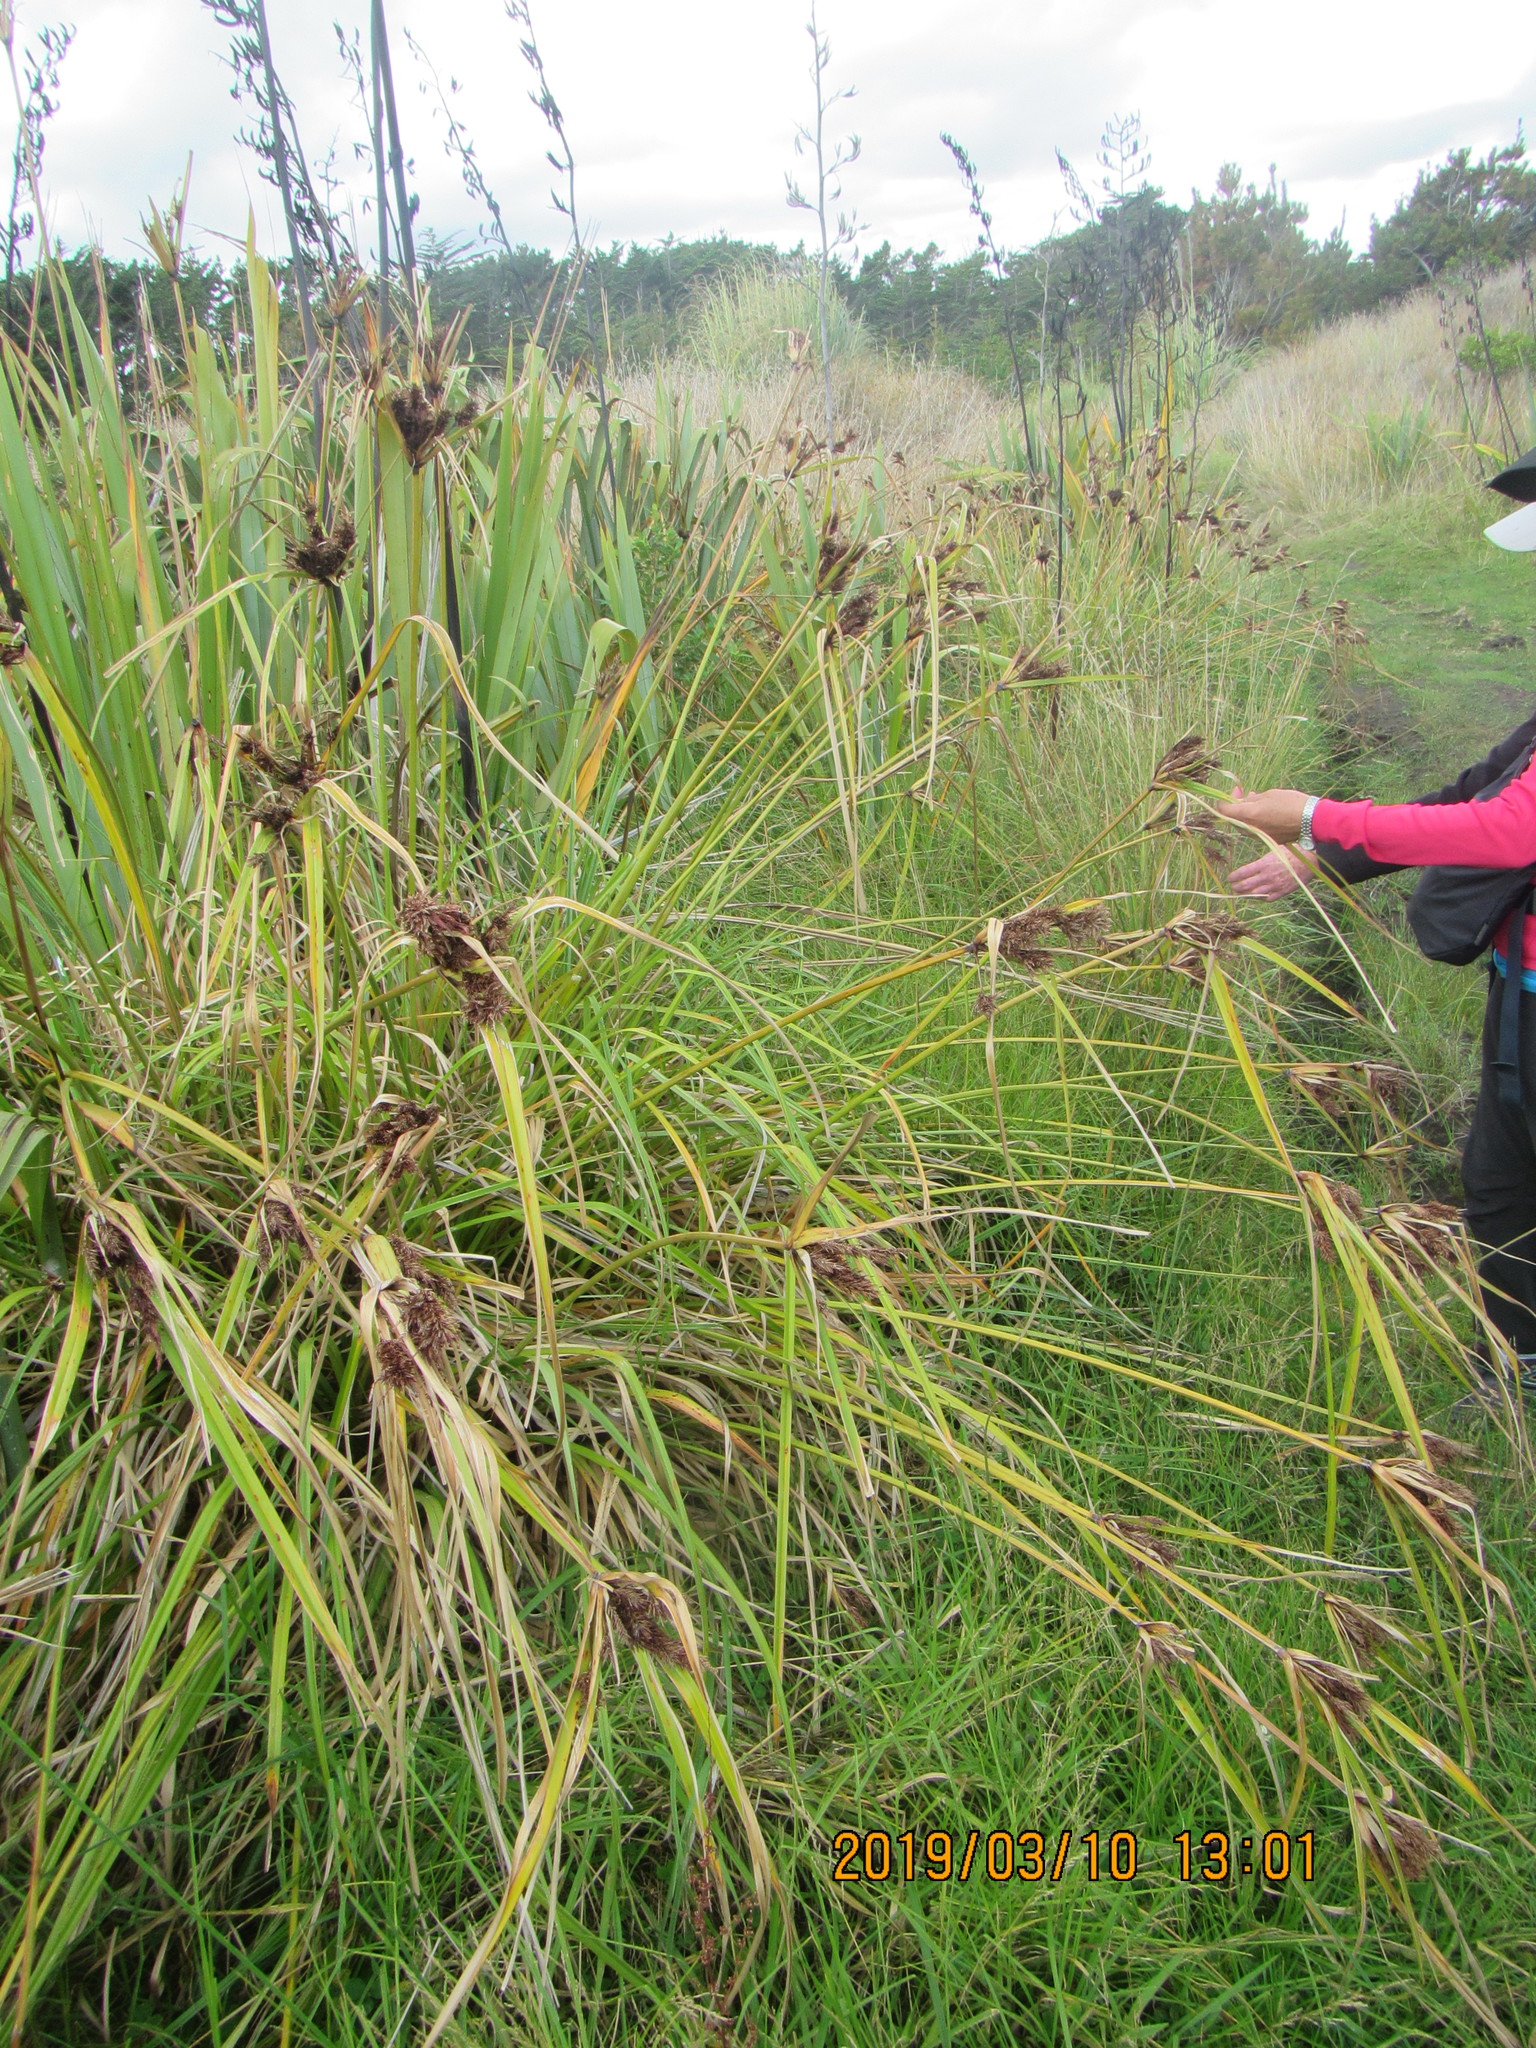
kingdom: Plantae
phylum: Tracheophyta
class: Liliopsida
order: Poales
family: Cyperaceae
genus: Cyperus
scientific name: Cyperus ustulatus
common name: Giant umbrella-sedge
